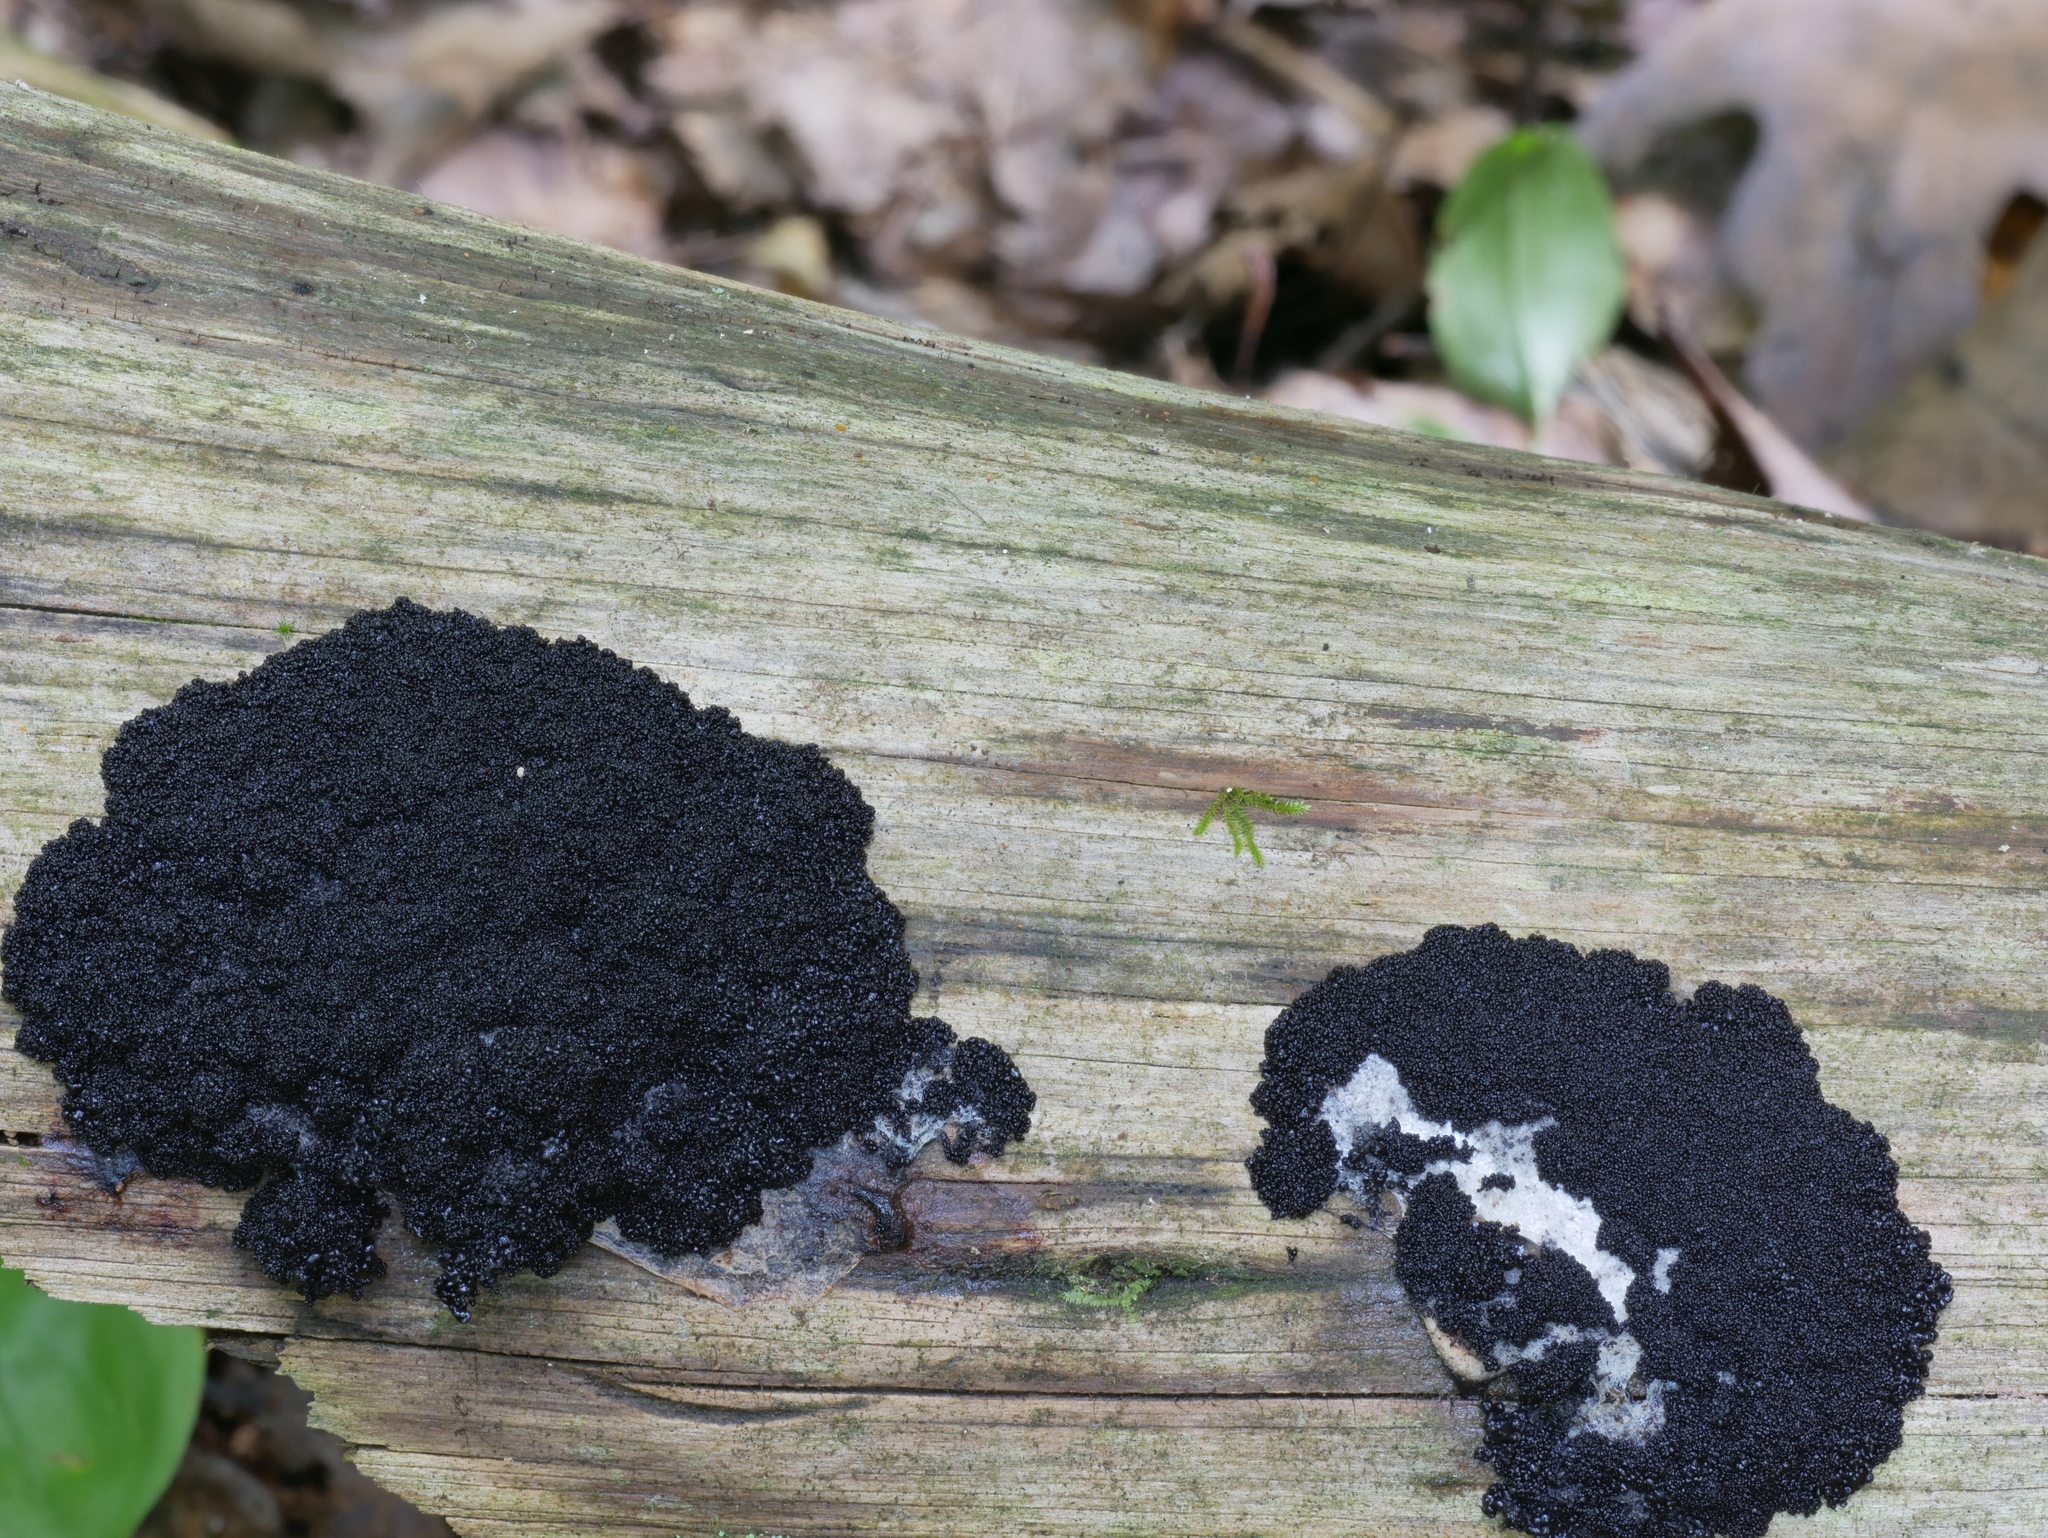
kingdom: Protozoa
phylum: Mycetozoa
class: Myxomycetes
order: Cribrariales
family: Cribrariaceae
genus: Lindbladia
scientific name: Lindbladia tubulina
